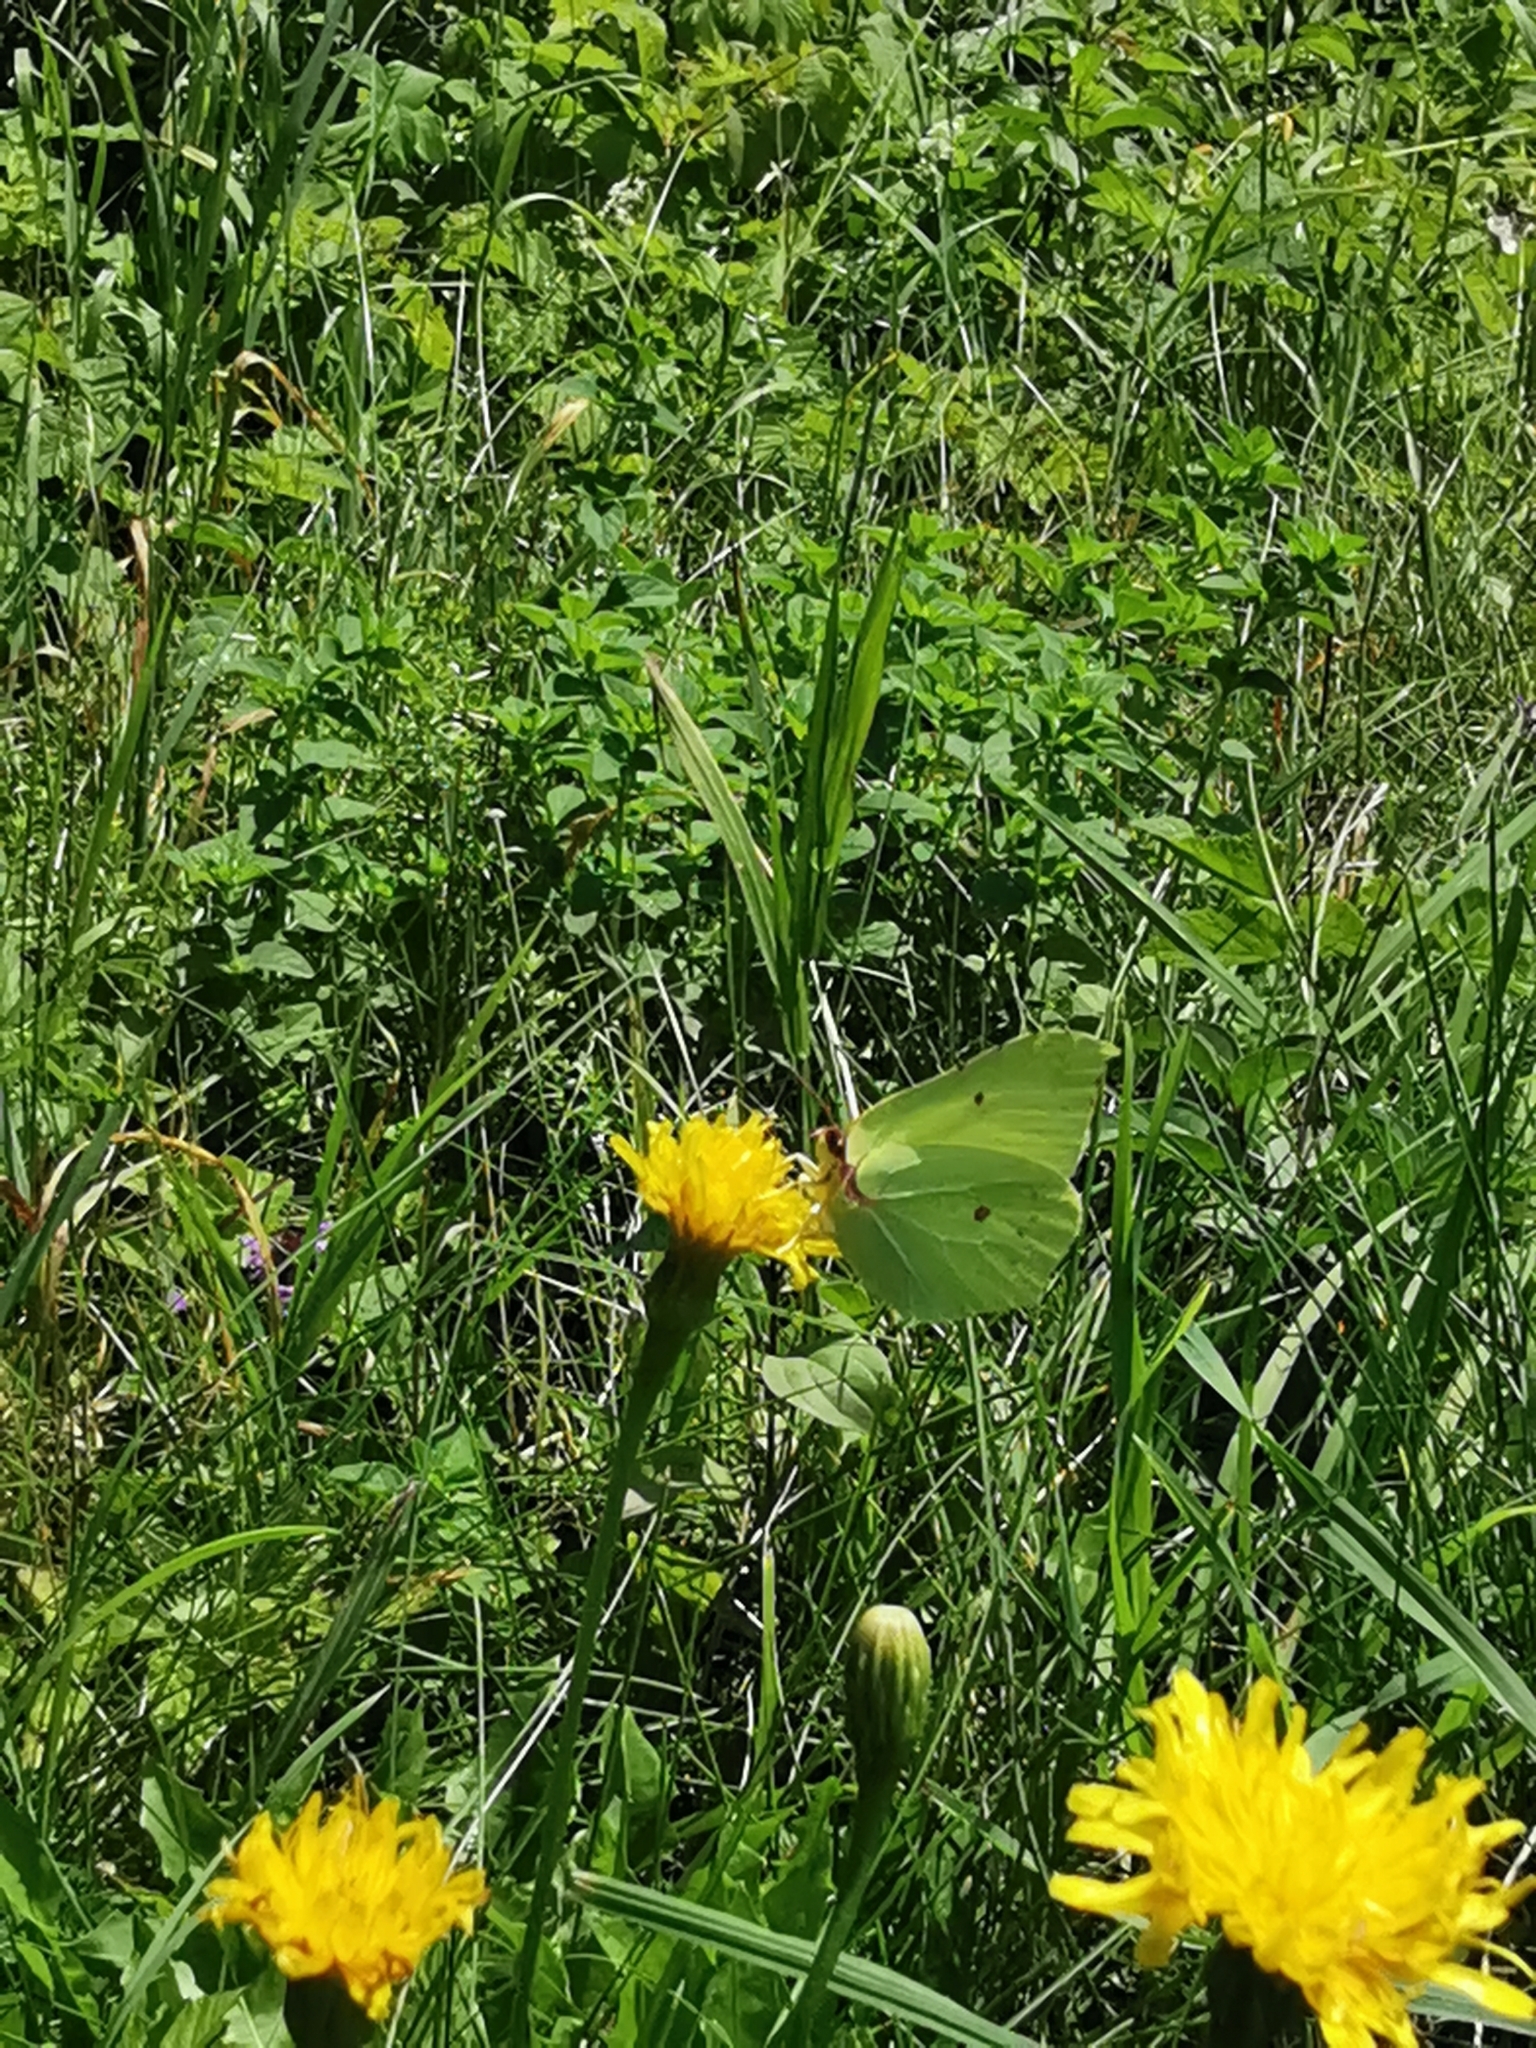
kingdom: Animalia
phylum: Arthropoda
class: Insecta
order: Lepidoptera
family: Pieridae
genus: Gonepteryx
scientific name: Gonepteryx rhamni
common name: Brimstone
